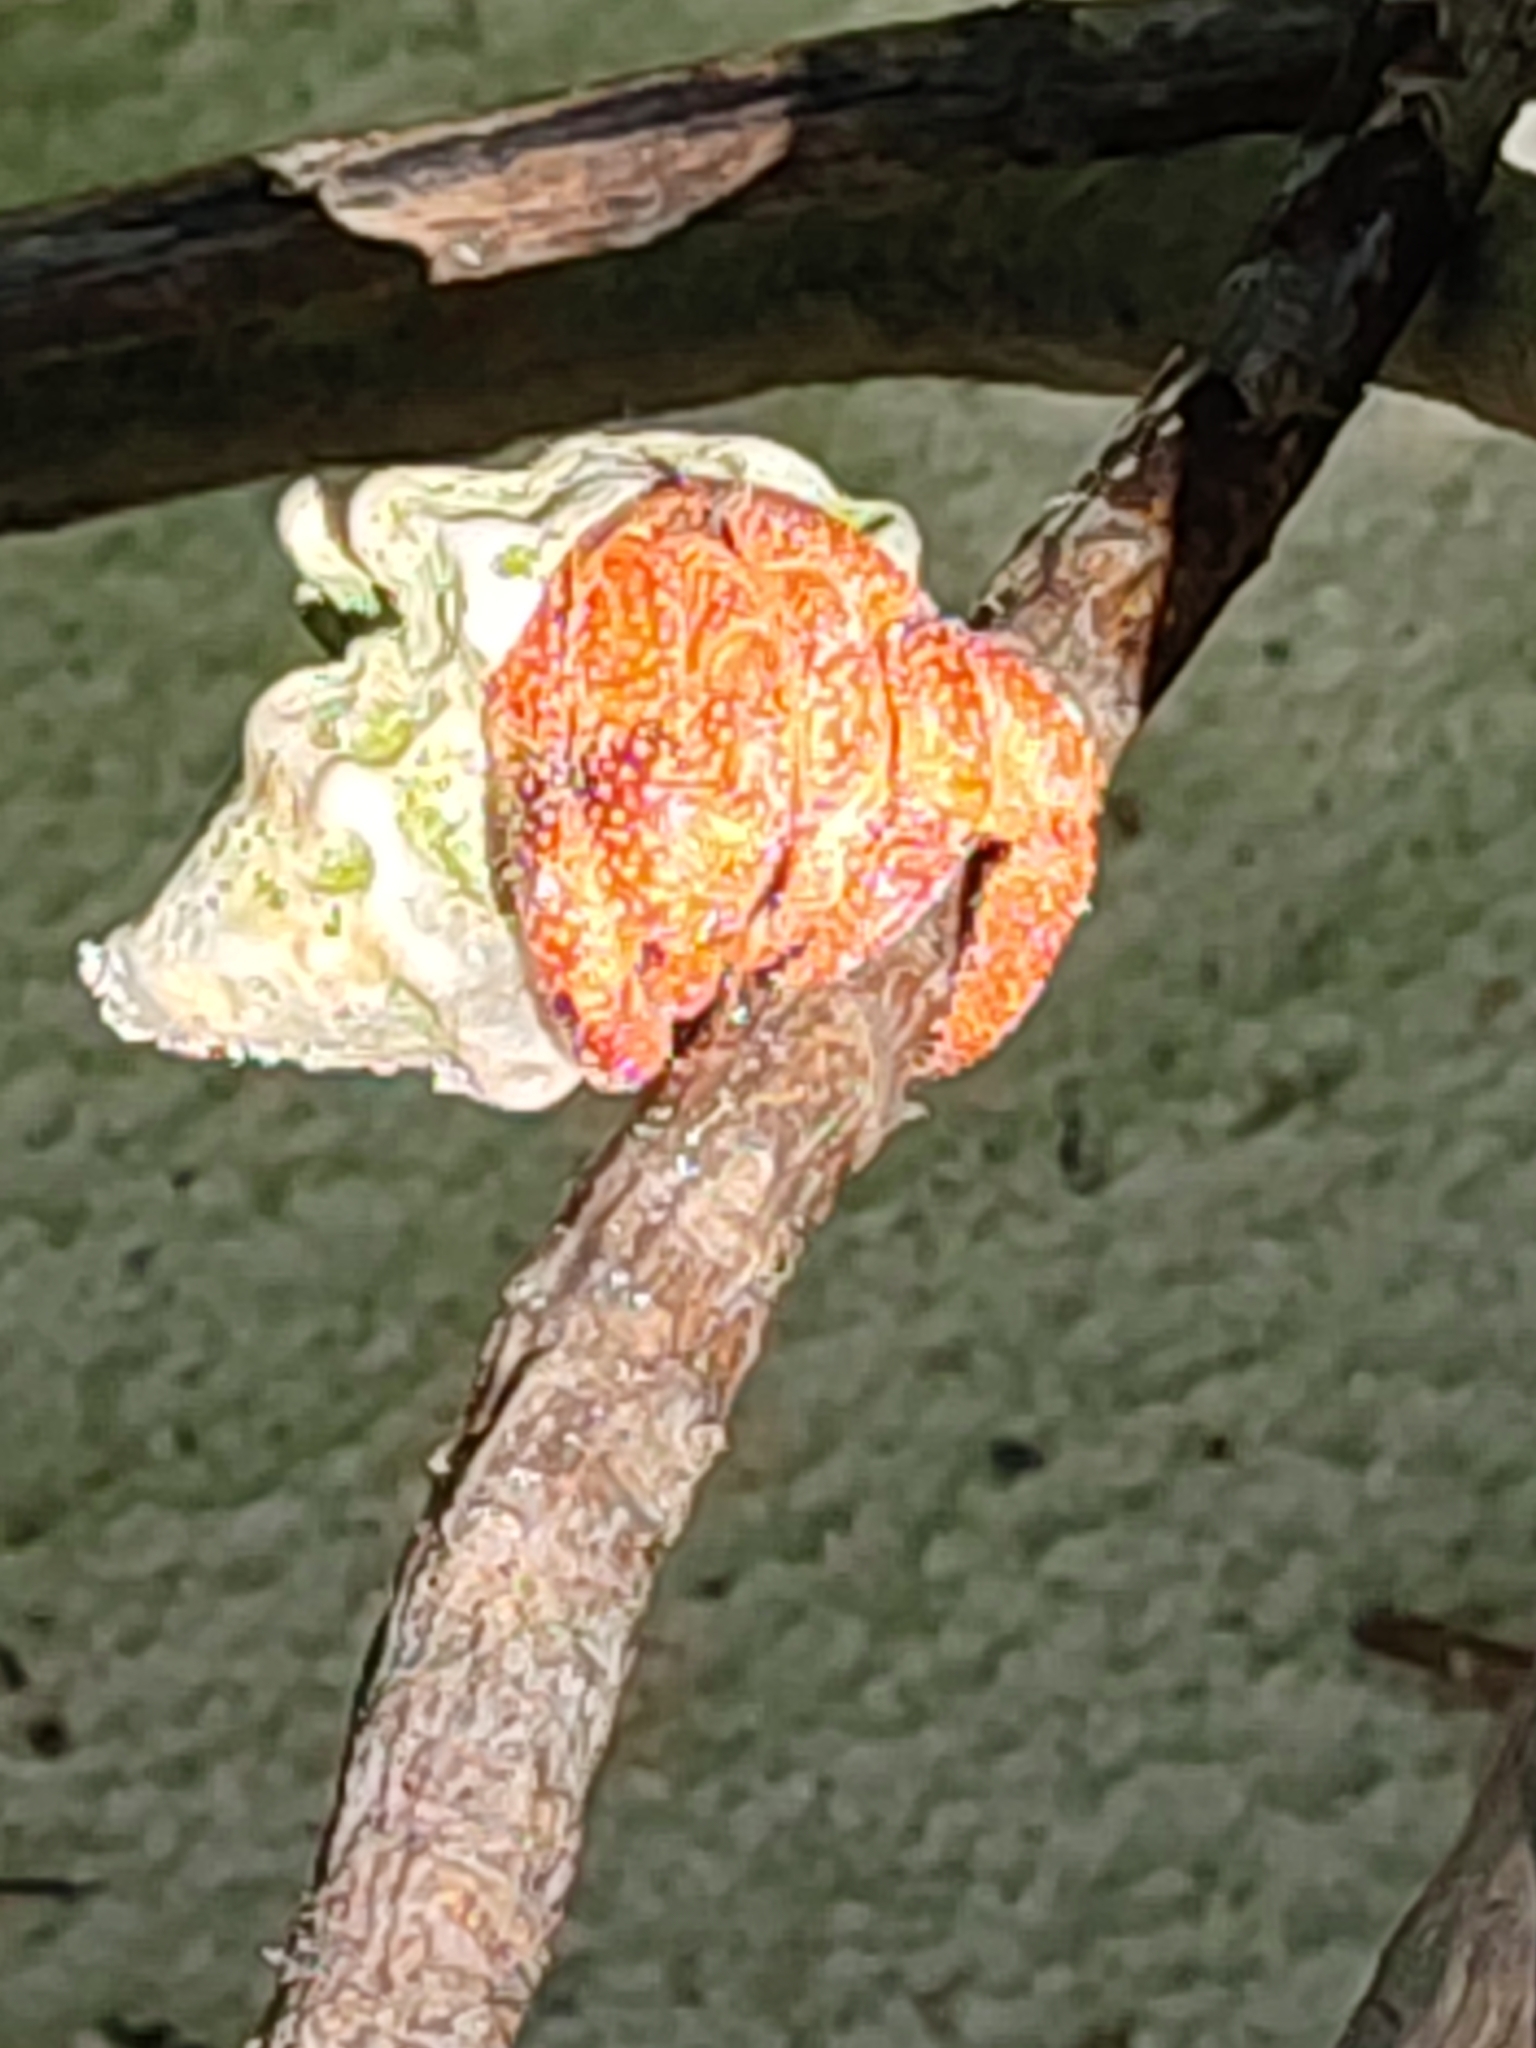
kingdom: Animalia
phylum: Arthropoda
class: Malacostraca
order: Decapoda
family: Coenobitidae
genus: Coenobita
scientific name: Coenobita perlatus
